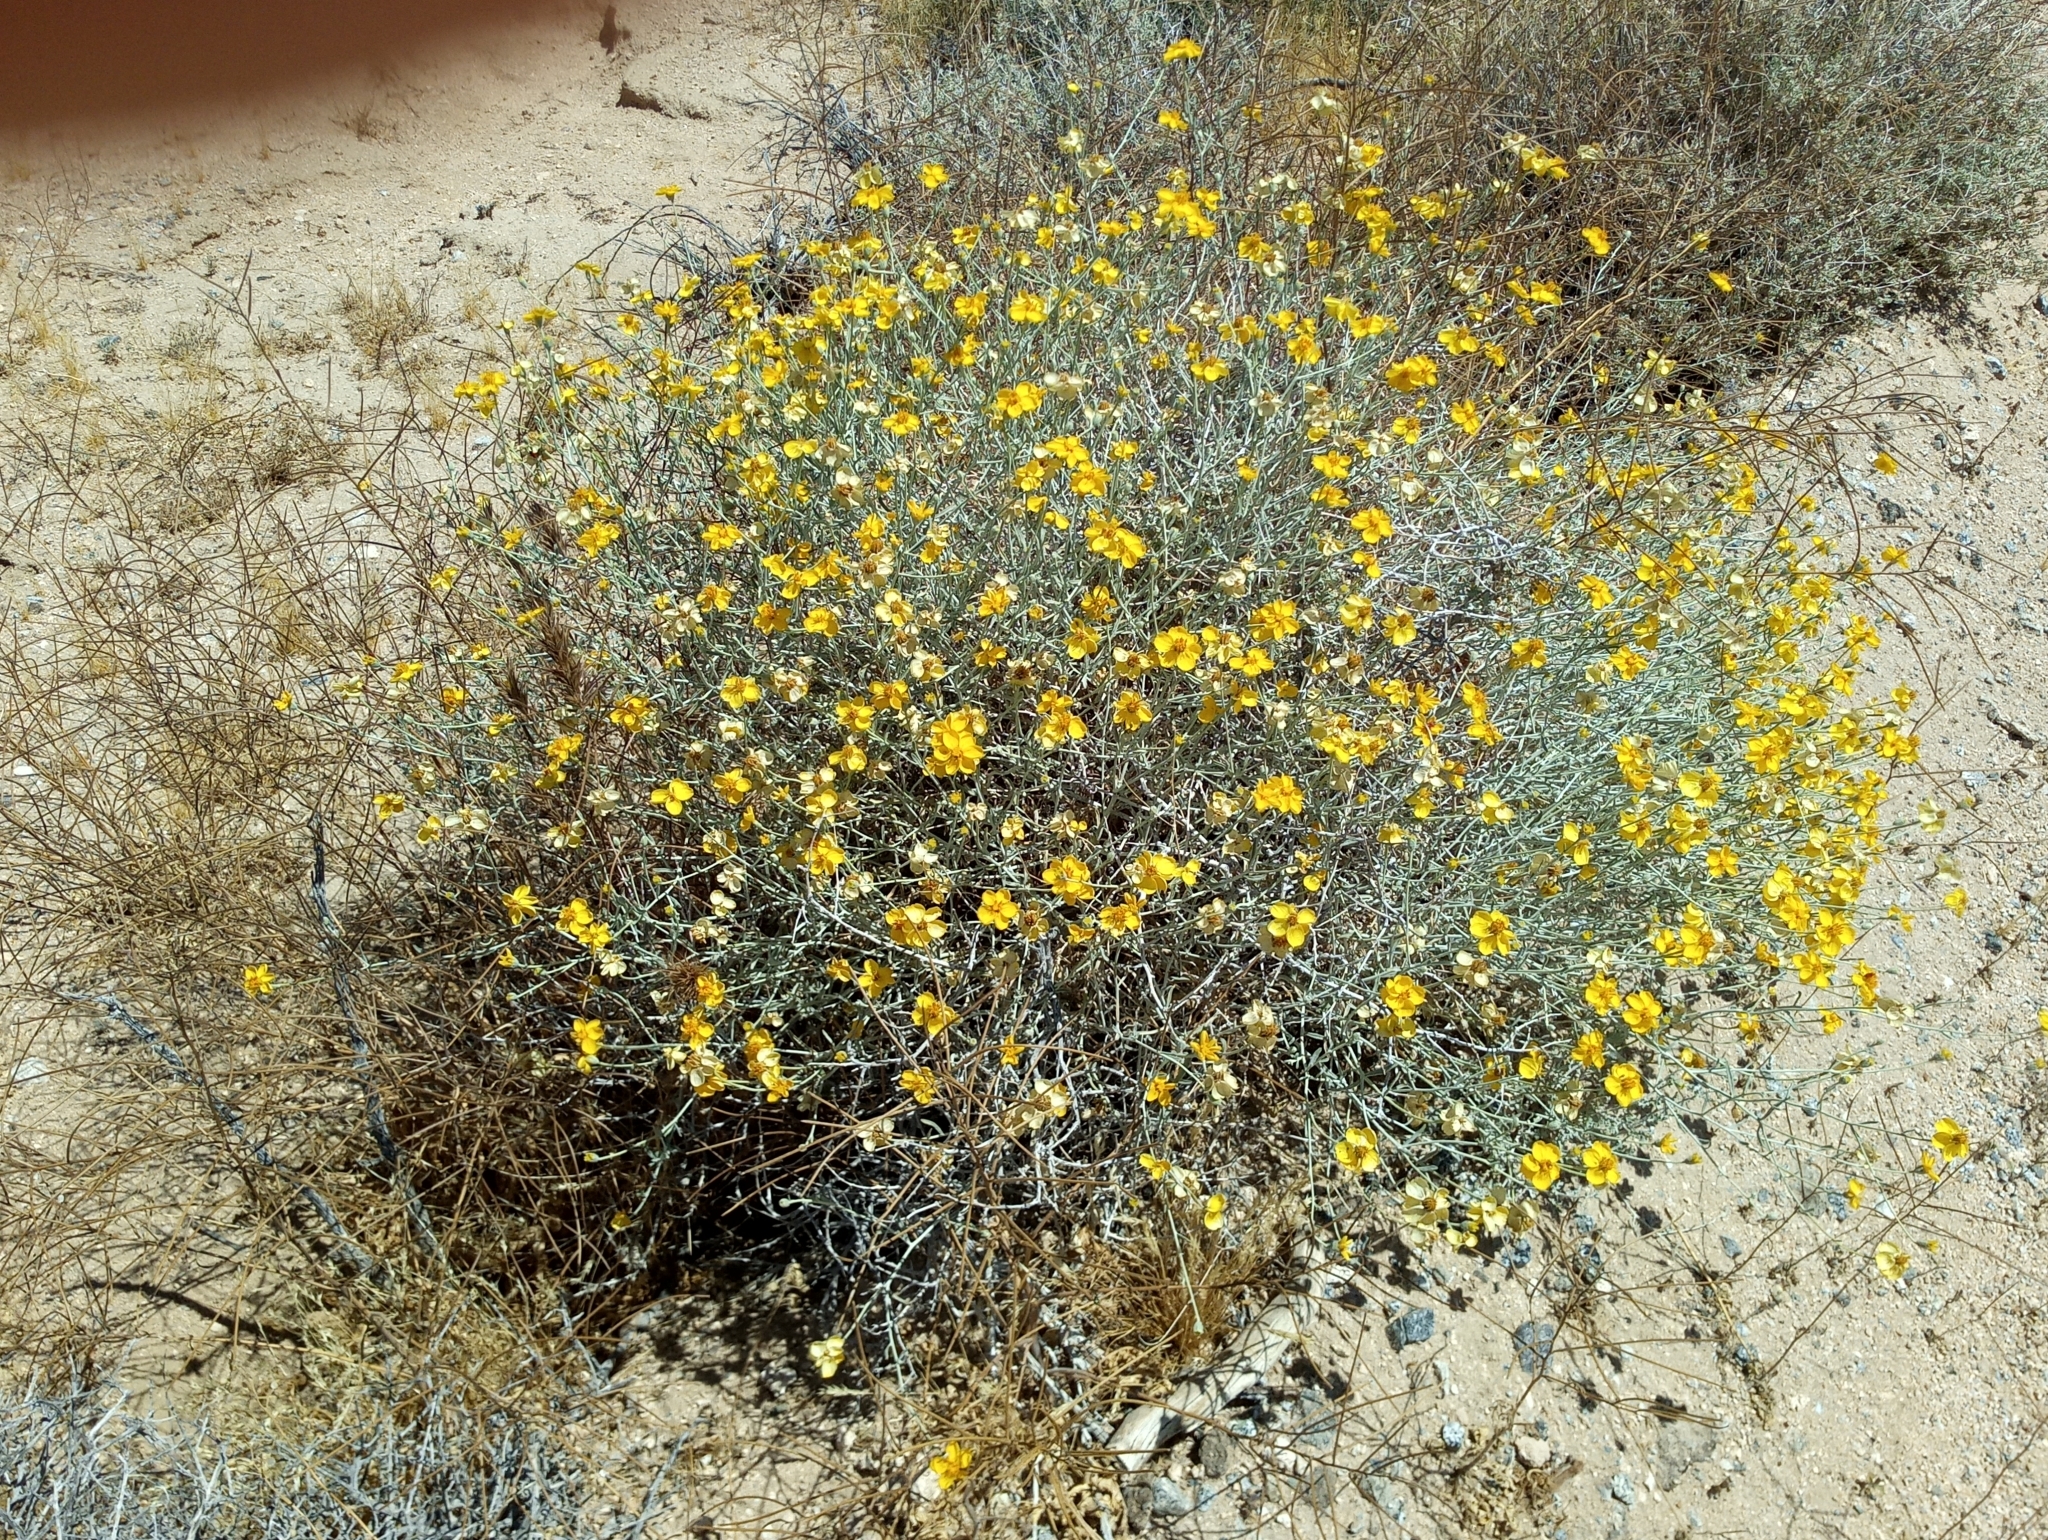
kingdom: Plantae
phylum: Tracheophyta
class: Magnoliopsida
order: Asterales
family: Asteraceae
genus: Psilostrophe
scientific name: Psilostrophe cooperi
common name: White-stem paper-flower
